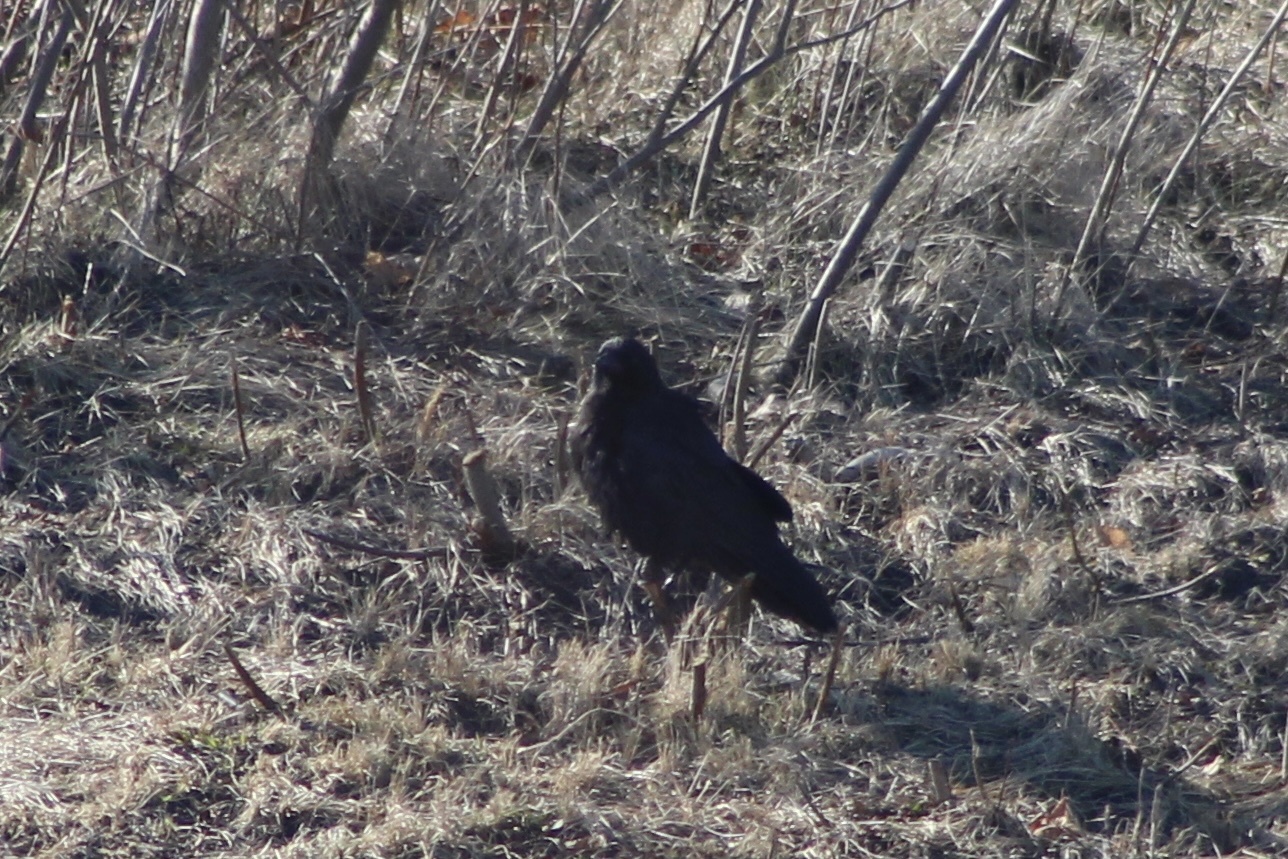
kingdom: Animalia
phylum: Chordata
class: Aves
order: Passeriformes
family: Corvidae
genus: Corvus
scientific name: Corvus brachyrhynchos
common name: American crow
